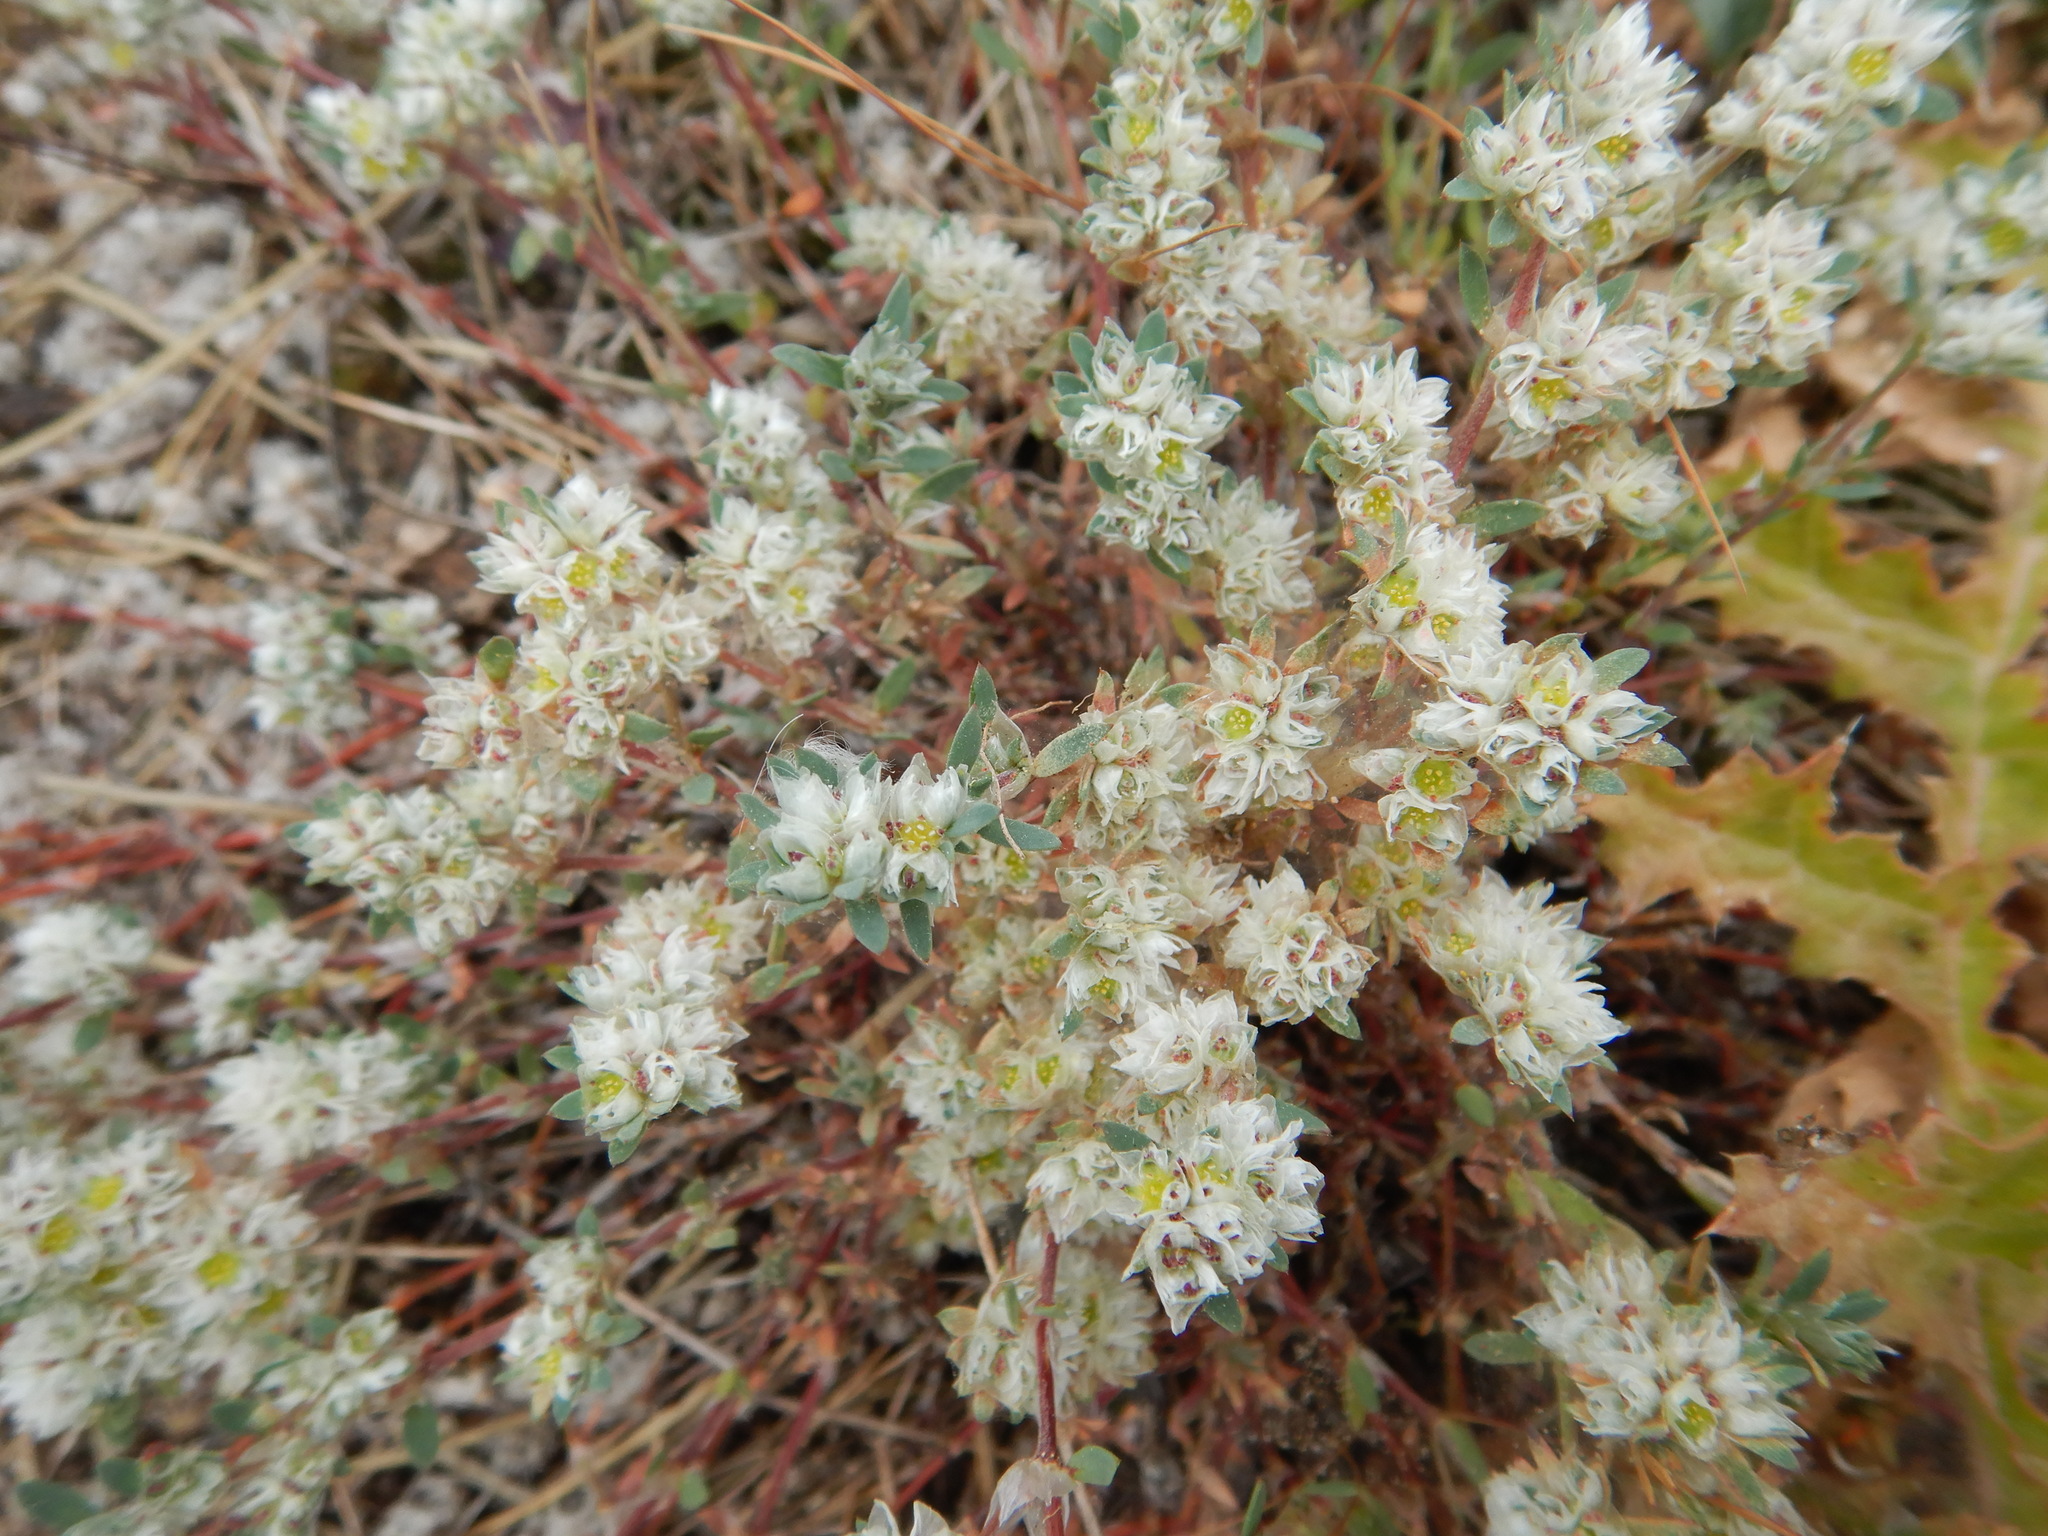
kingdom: Plantae
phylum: Tracheophyta
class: Magnoliopsida
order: Caryophyllales
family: Caryophyllaceae
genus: Paronychia
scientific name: Paronychia argentea
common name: Silver nailroot
